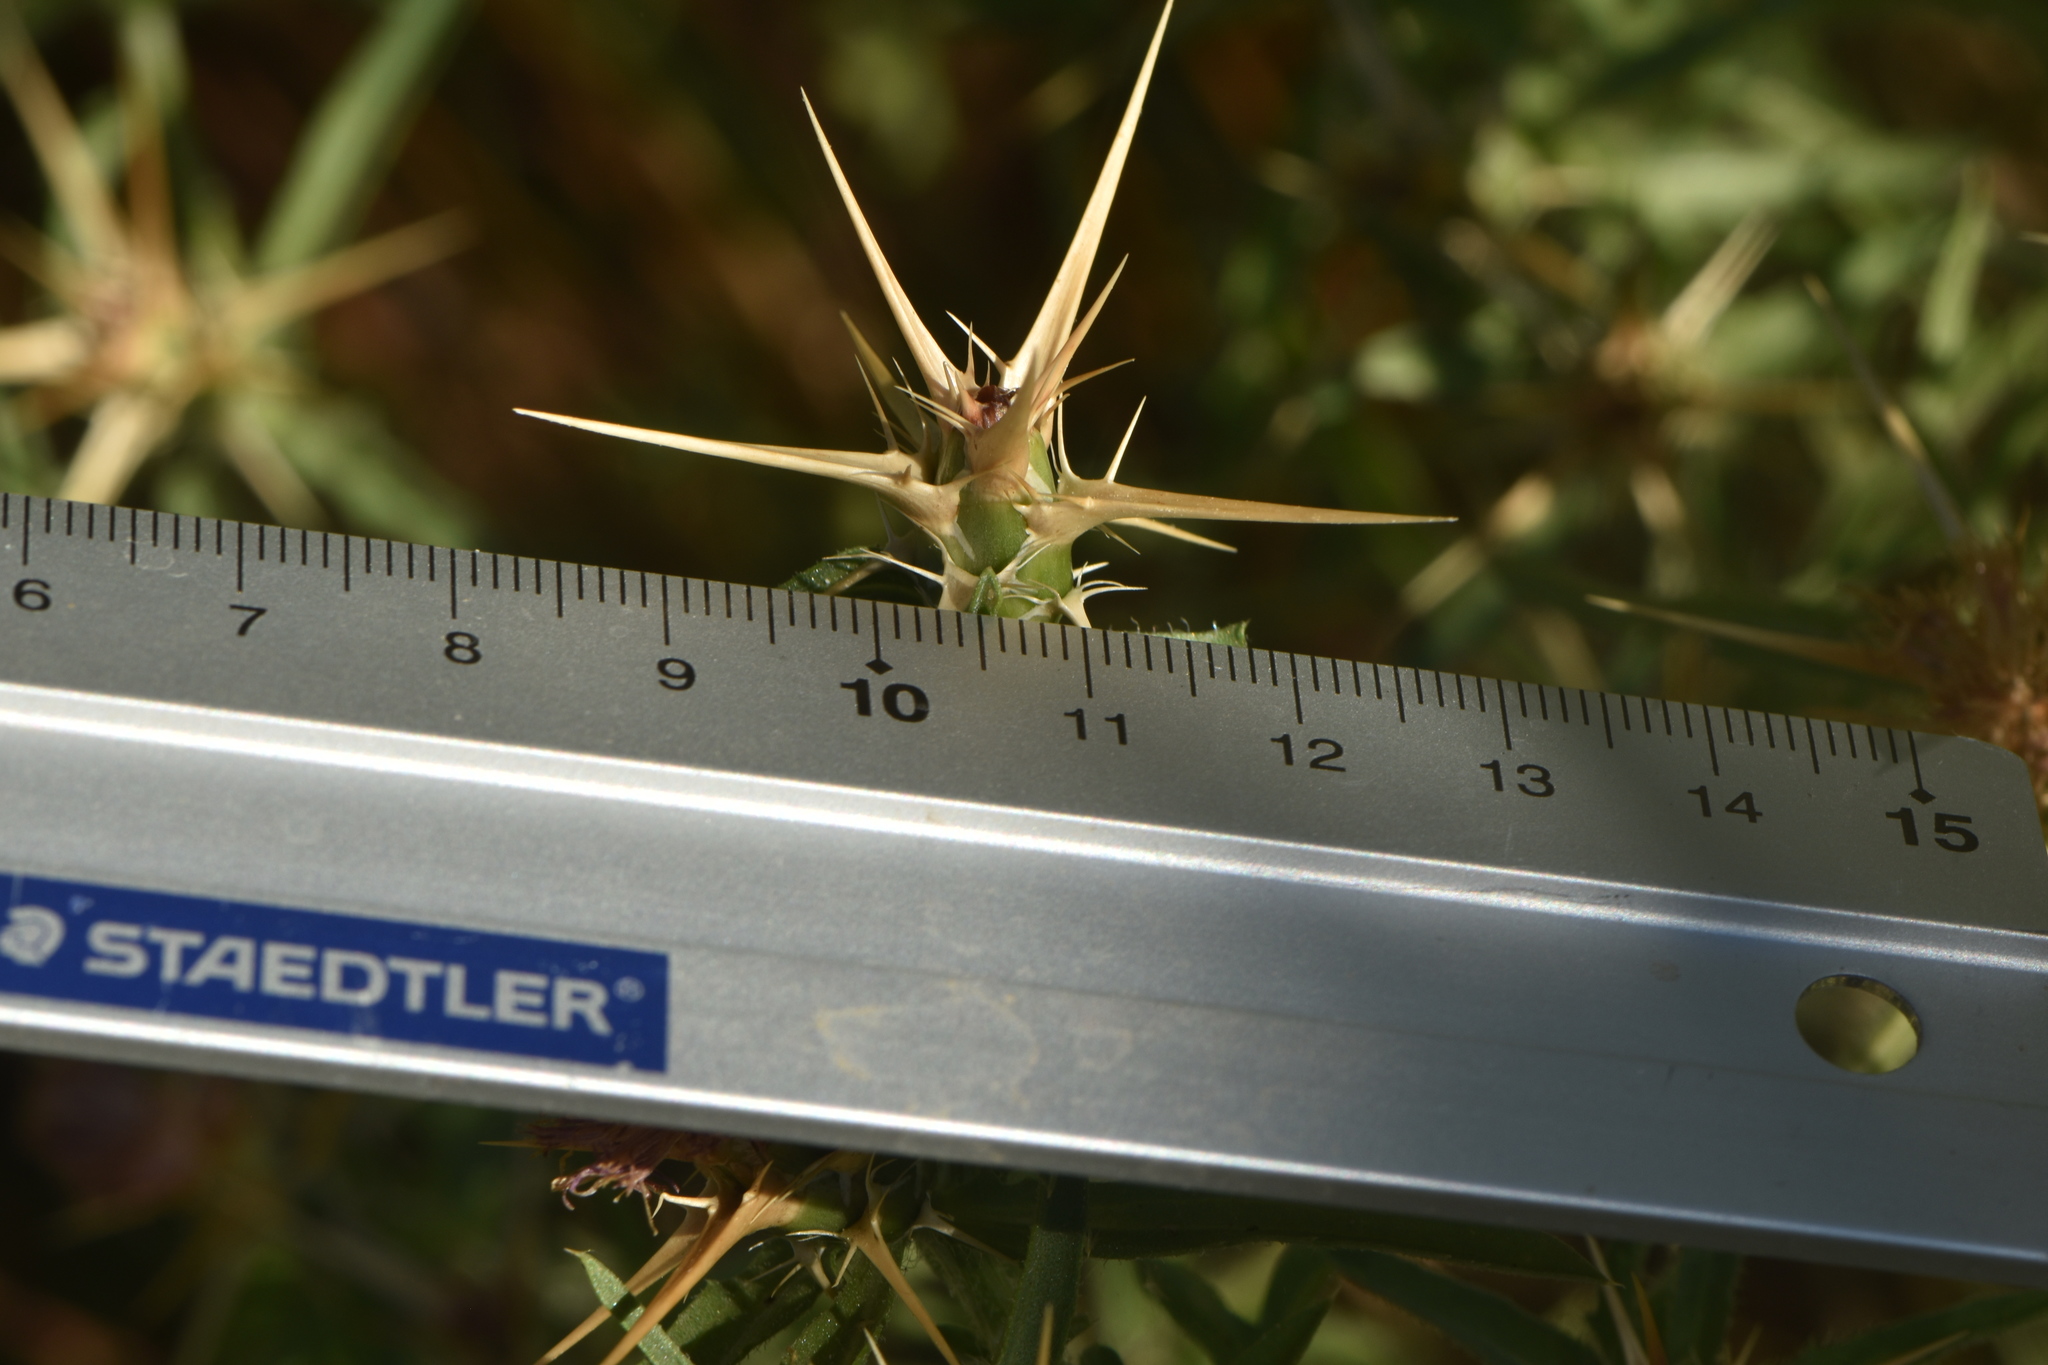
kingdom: Plantae
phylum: Tracheophyta
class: Magnoliopsida
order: Asterales
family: Asteraceae
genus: Centaurea
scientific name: Centaurea calcitrapa
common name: Red star-thistle
